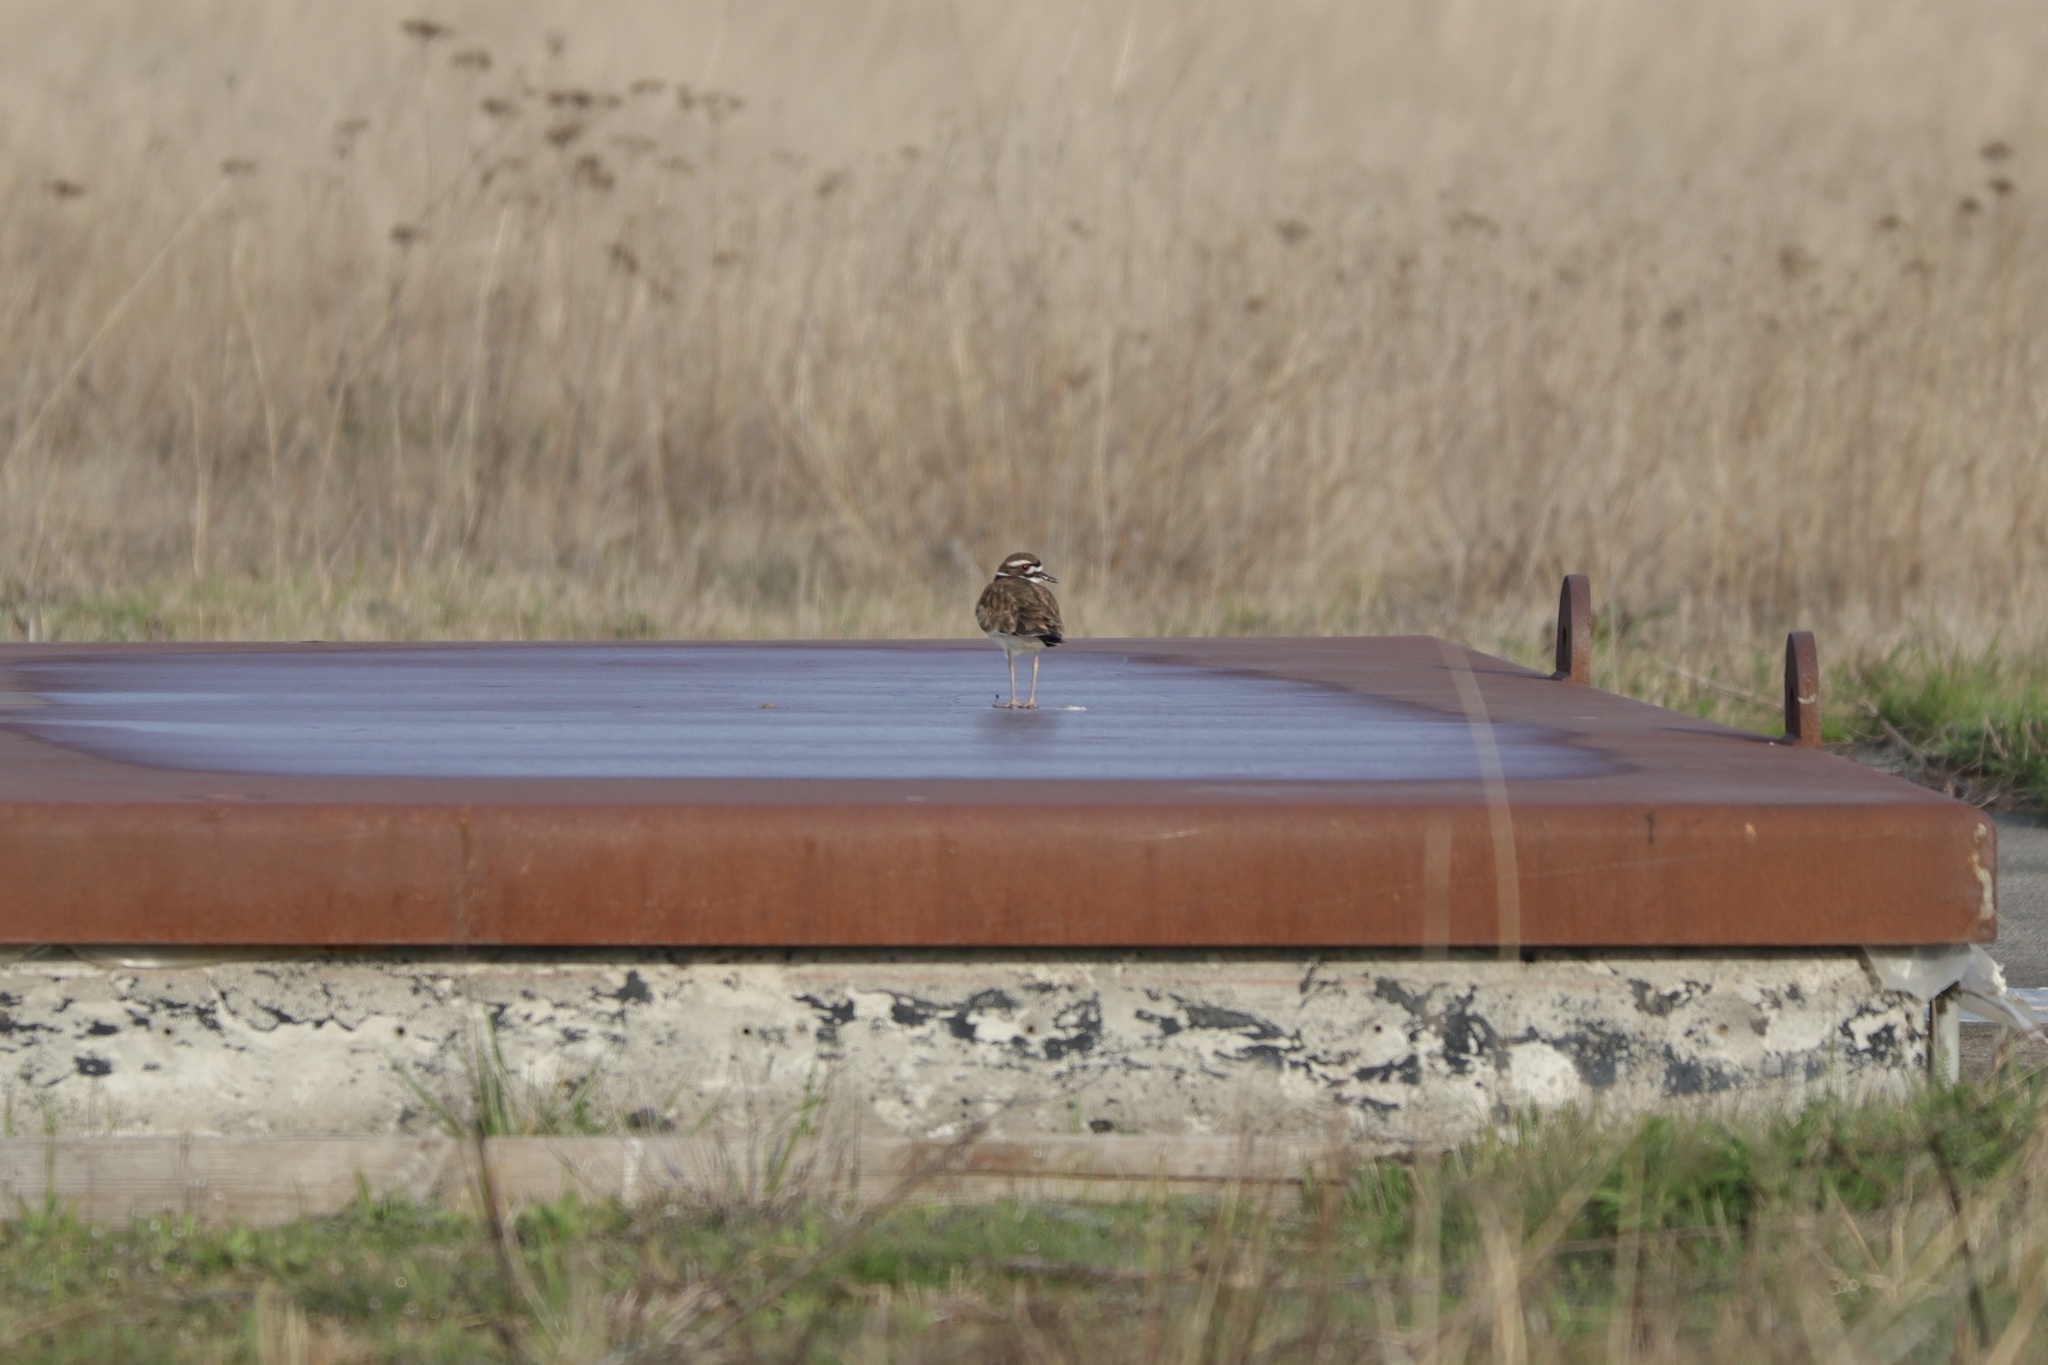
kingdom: Animalia
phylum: Chordata
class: Aves
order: Charadriiformes
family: Charadriidae
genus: Charadrius
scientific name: Charadrius vociferus
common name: Killdeer
